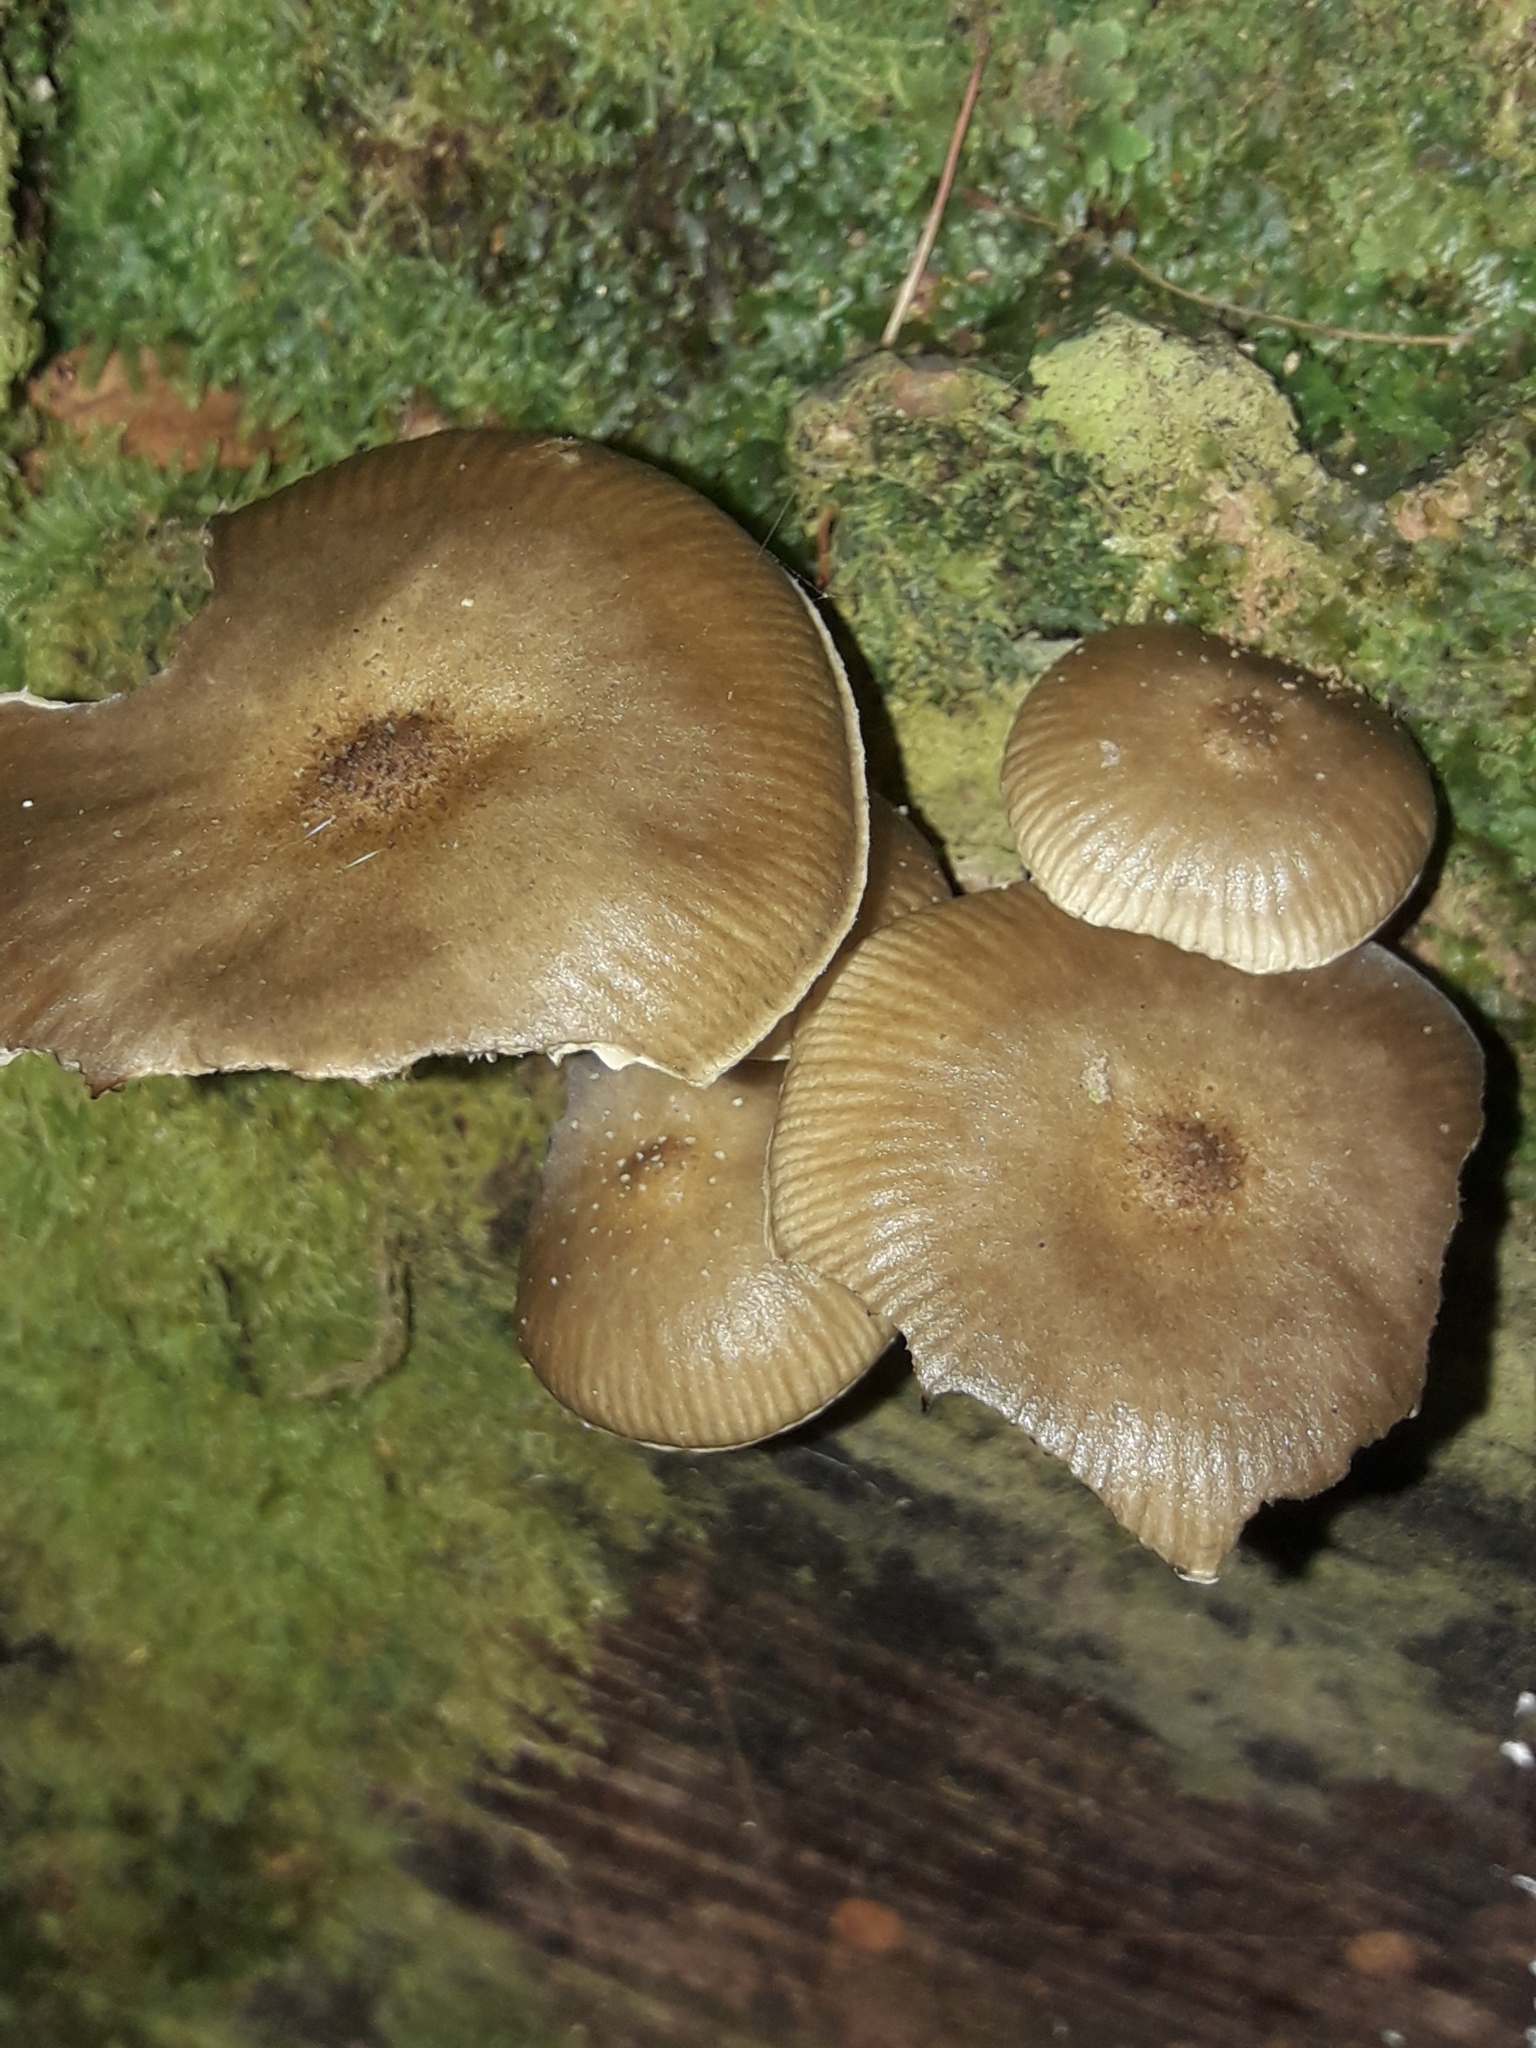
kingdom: Fungi
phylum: Basidiomycota
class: Agaricomycetes
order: Agaricales
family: Physalacriaceae
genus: Armillaria
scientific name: Armillaria novae-zelandiae
